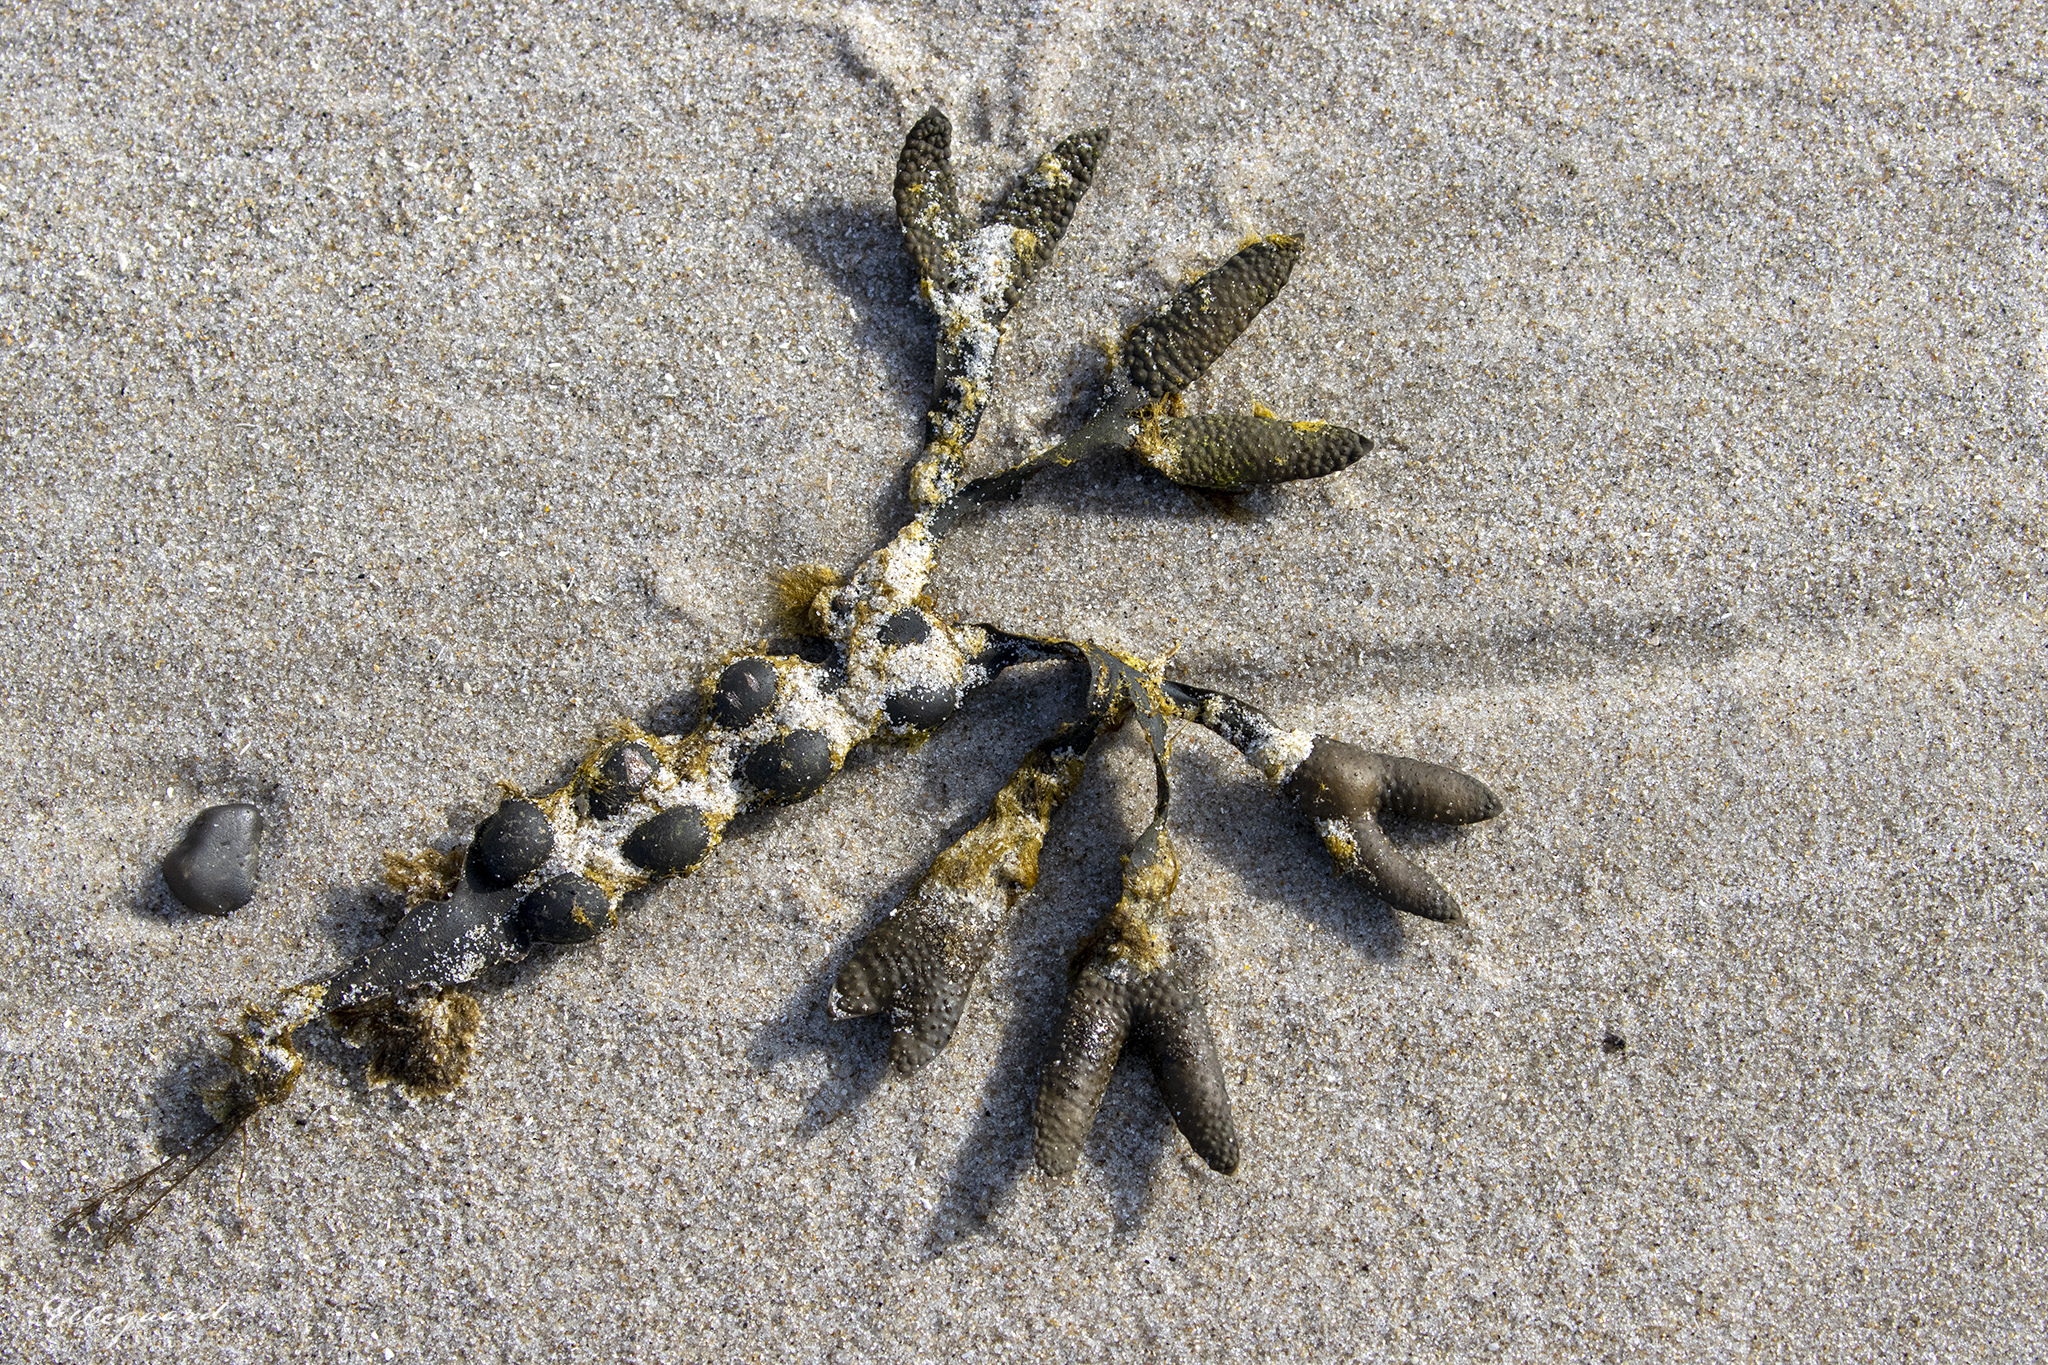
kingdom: Chromista
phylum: Ochrophyta
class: Phaeophyceae
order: Fucales
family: Fucaceae
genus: Fucus
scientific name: Fucus vesiculosus
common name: Bladder wrack
